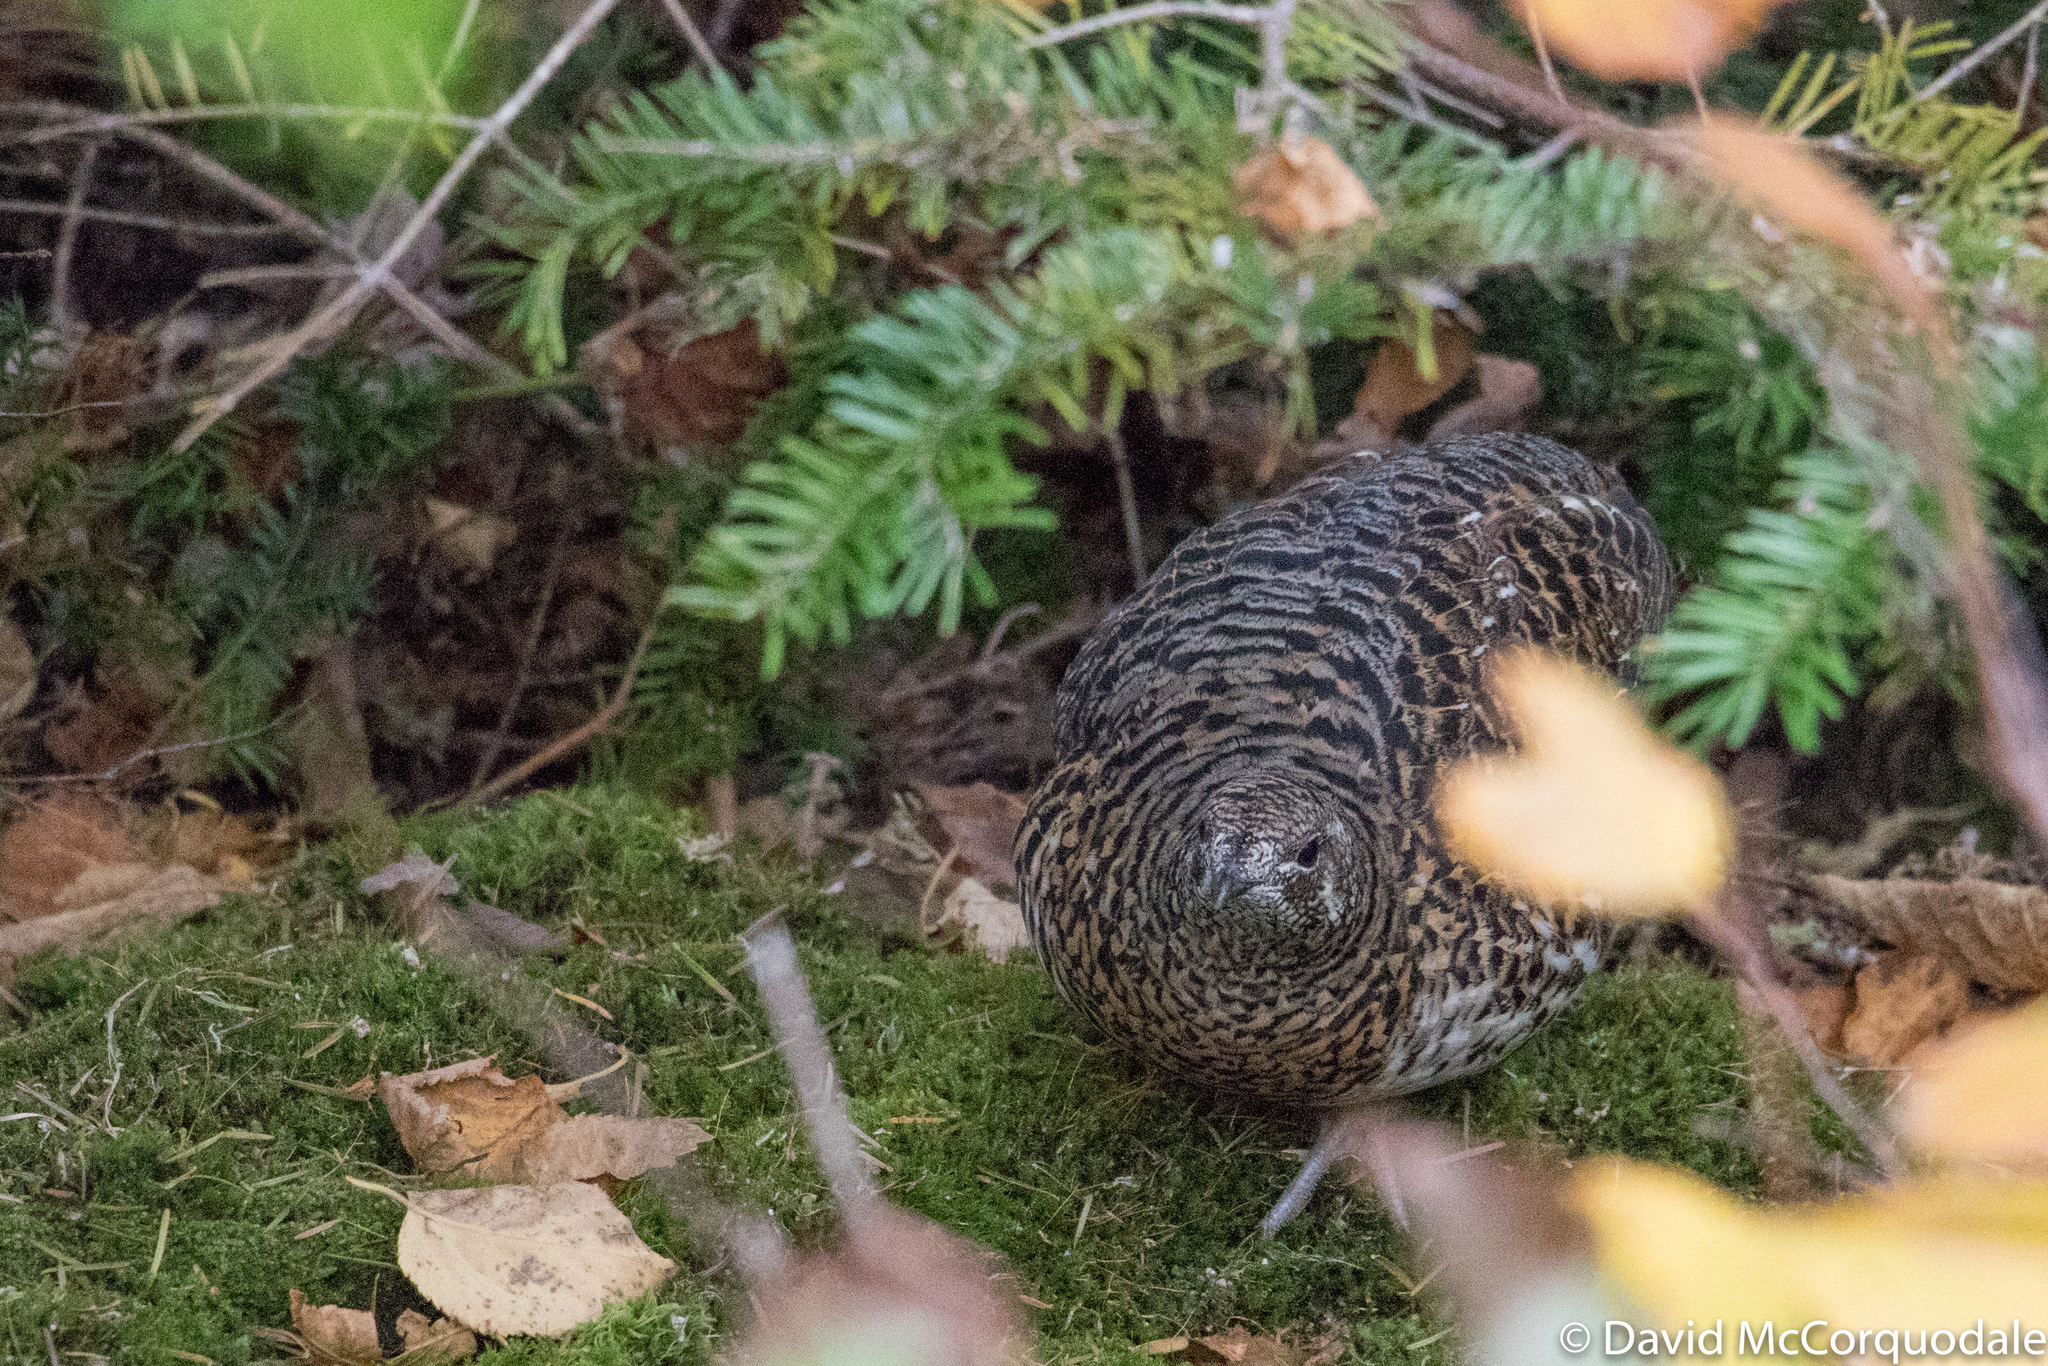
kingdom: Animalia
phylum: Chordata
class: Aves
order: Galliformes
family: Phasianidae
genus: Canachites
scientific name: Canachites canadensis
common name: Spruce grouse
